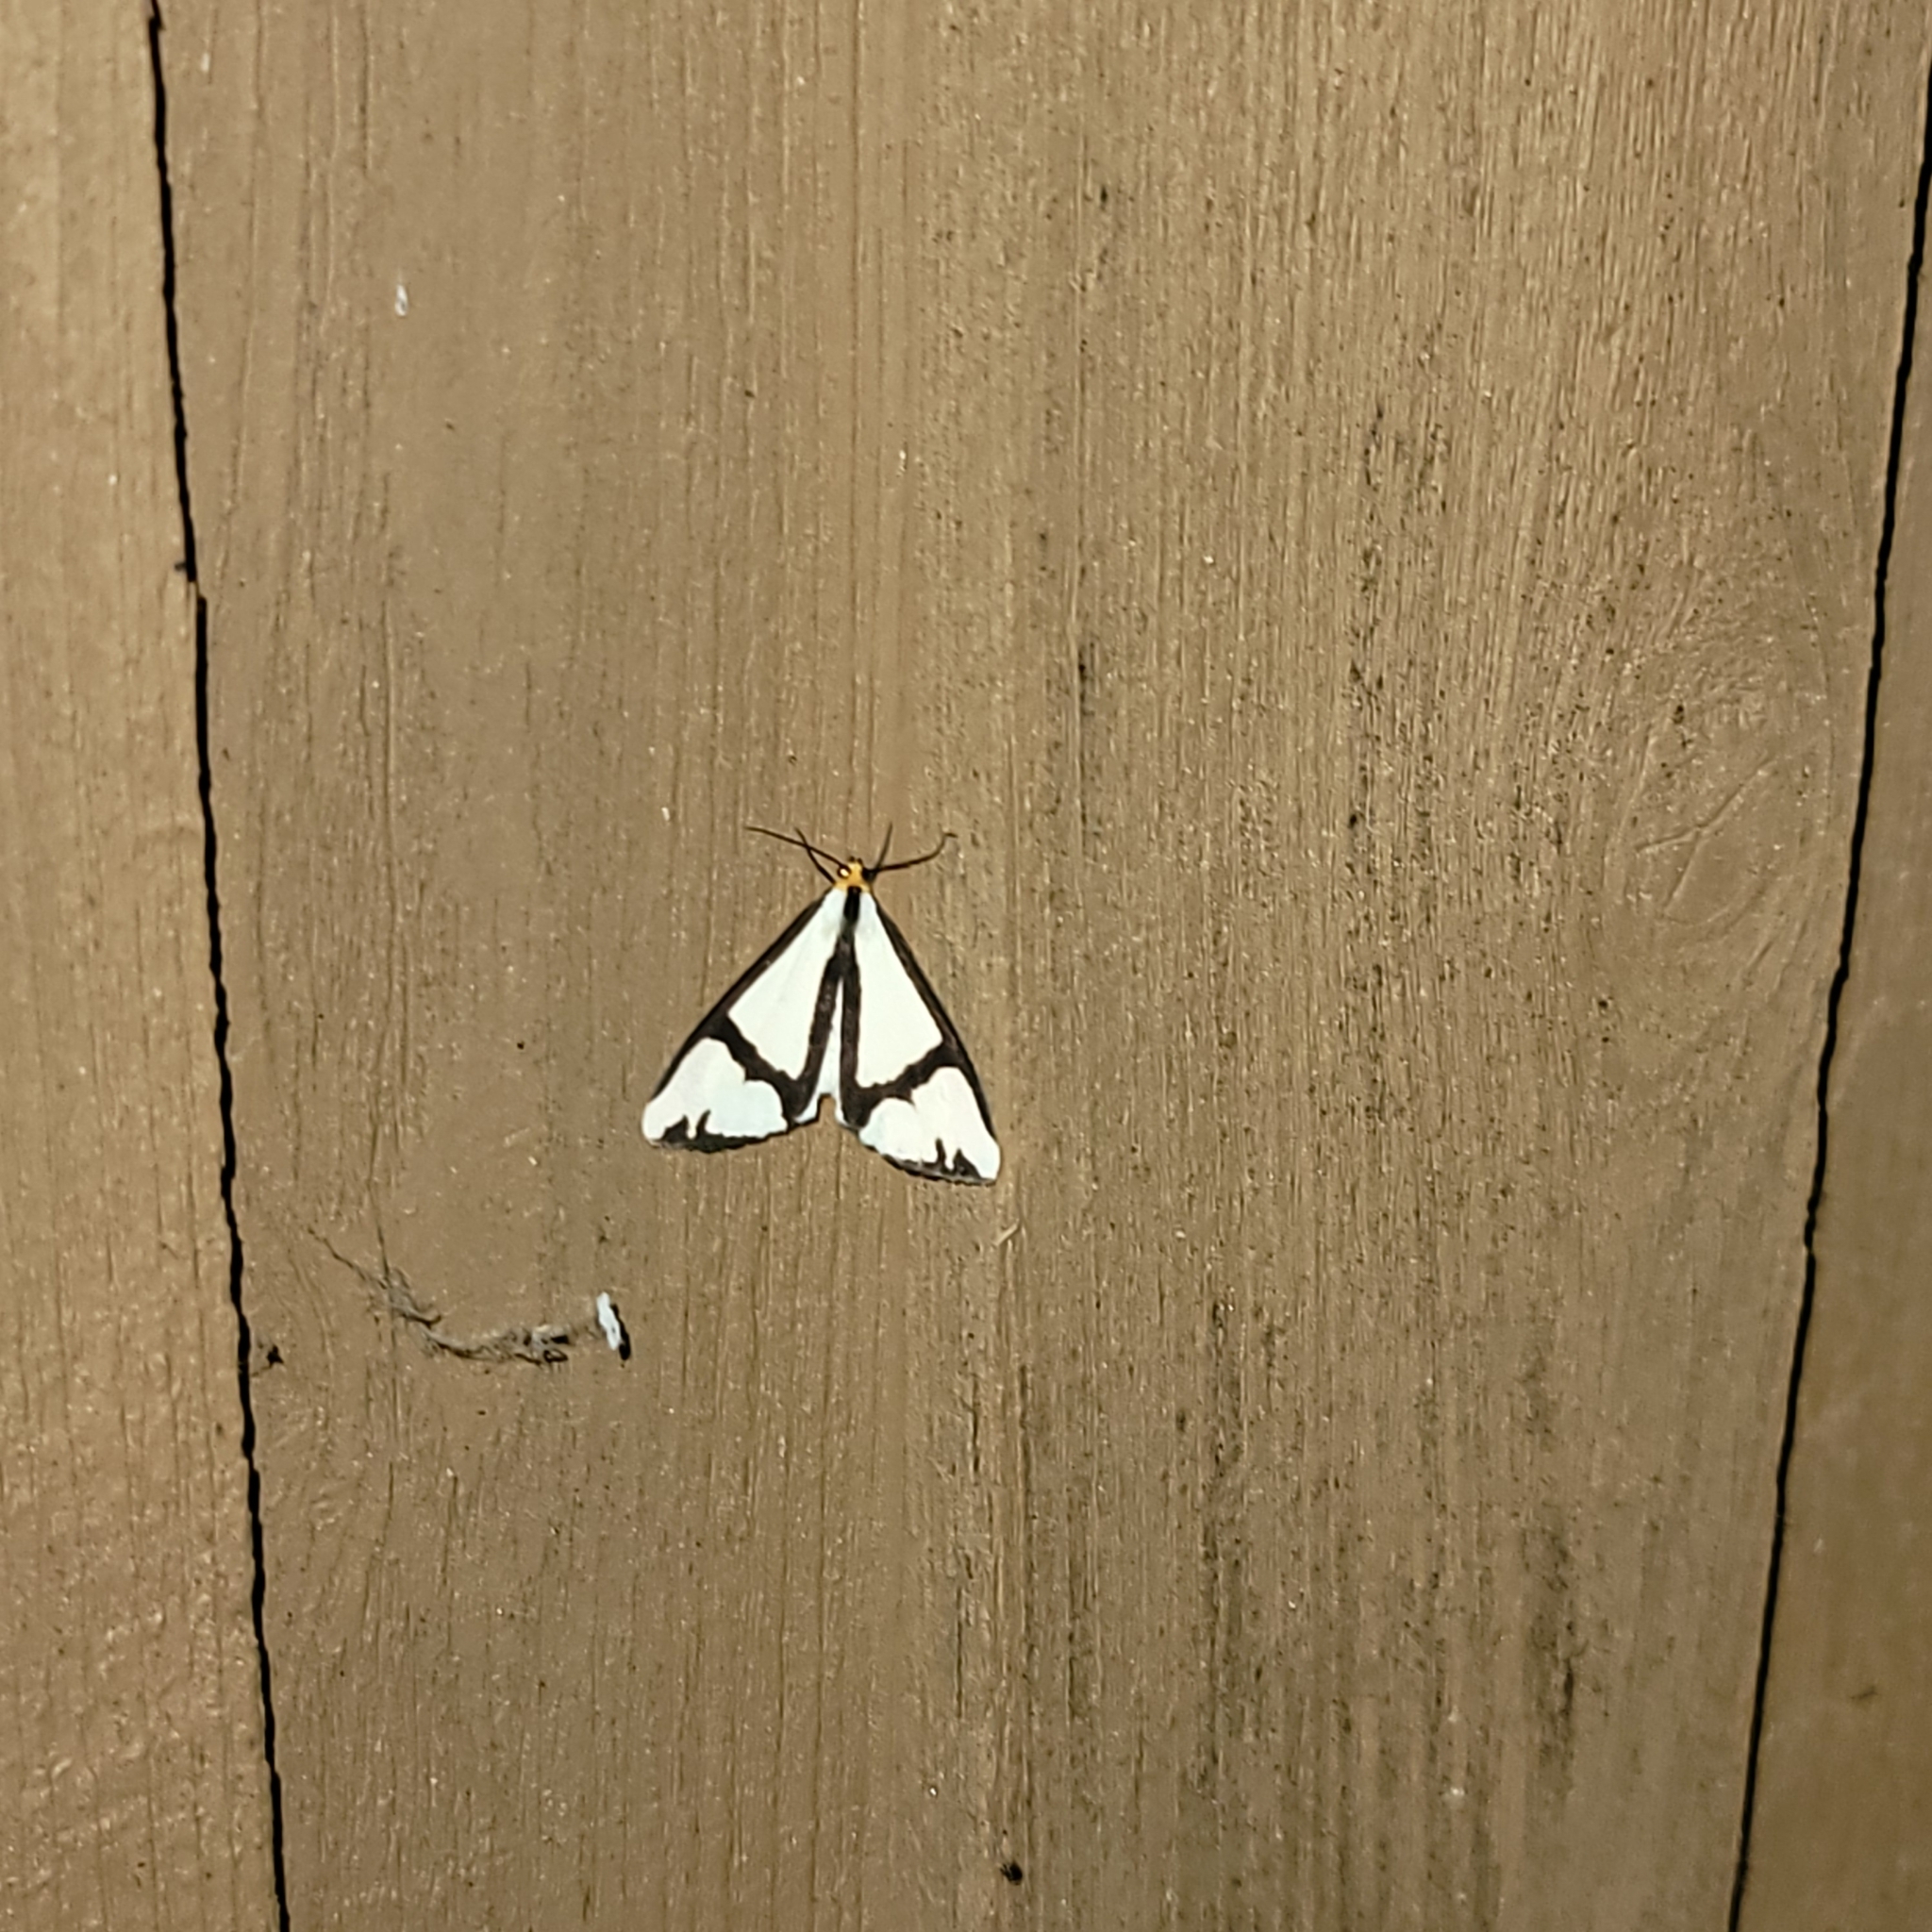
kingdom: Animalia
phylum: Arthropoda
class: Insecta
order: Lepidoptera
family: Erebidae
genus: Haploa
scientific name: Haploa contigua
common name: Neighbor moth
